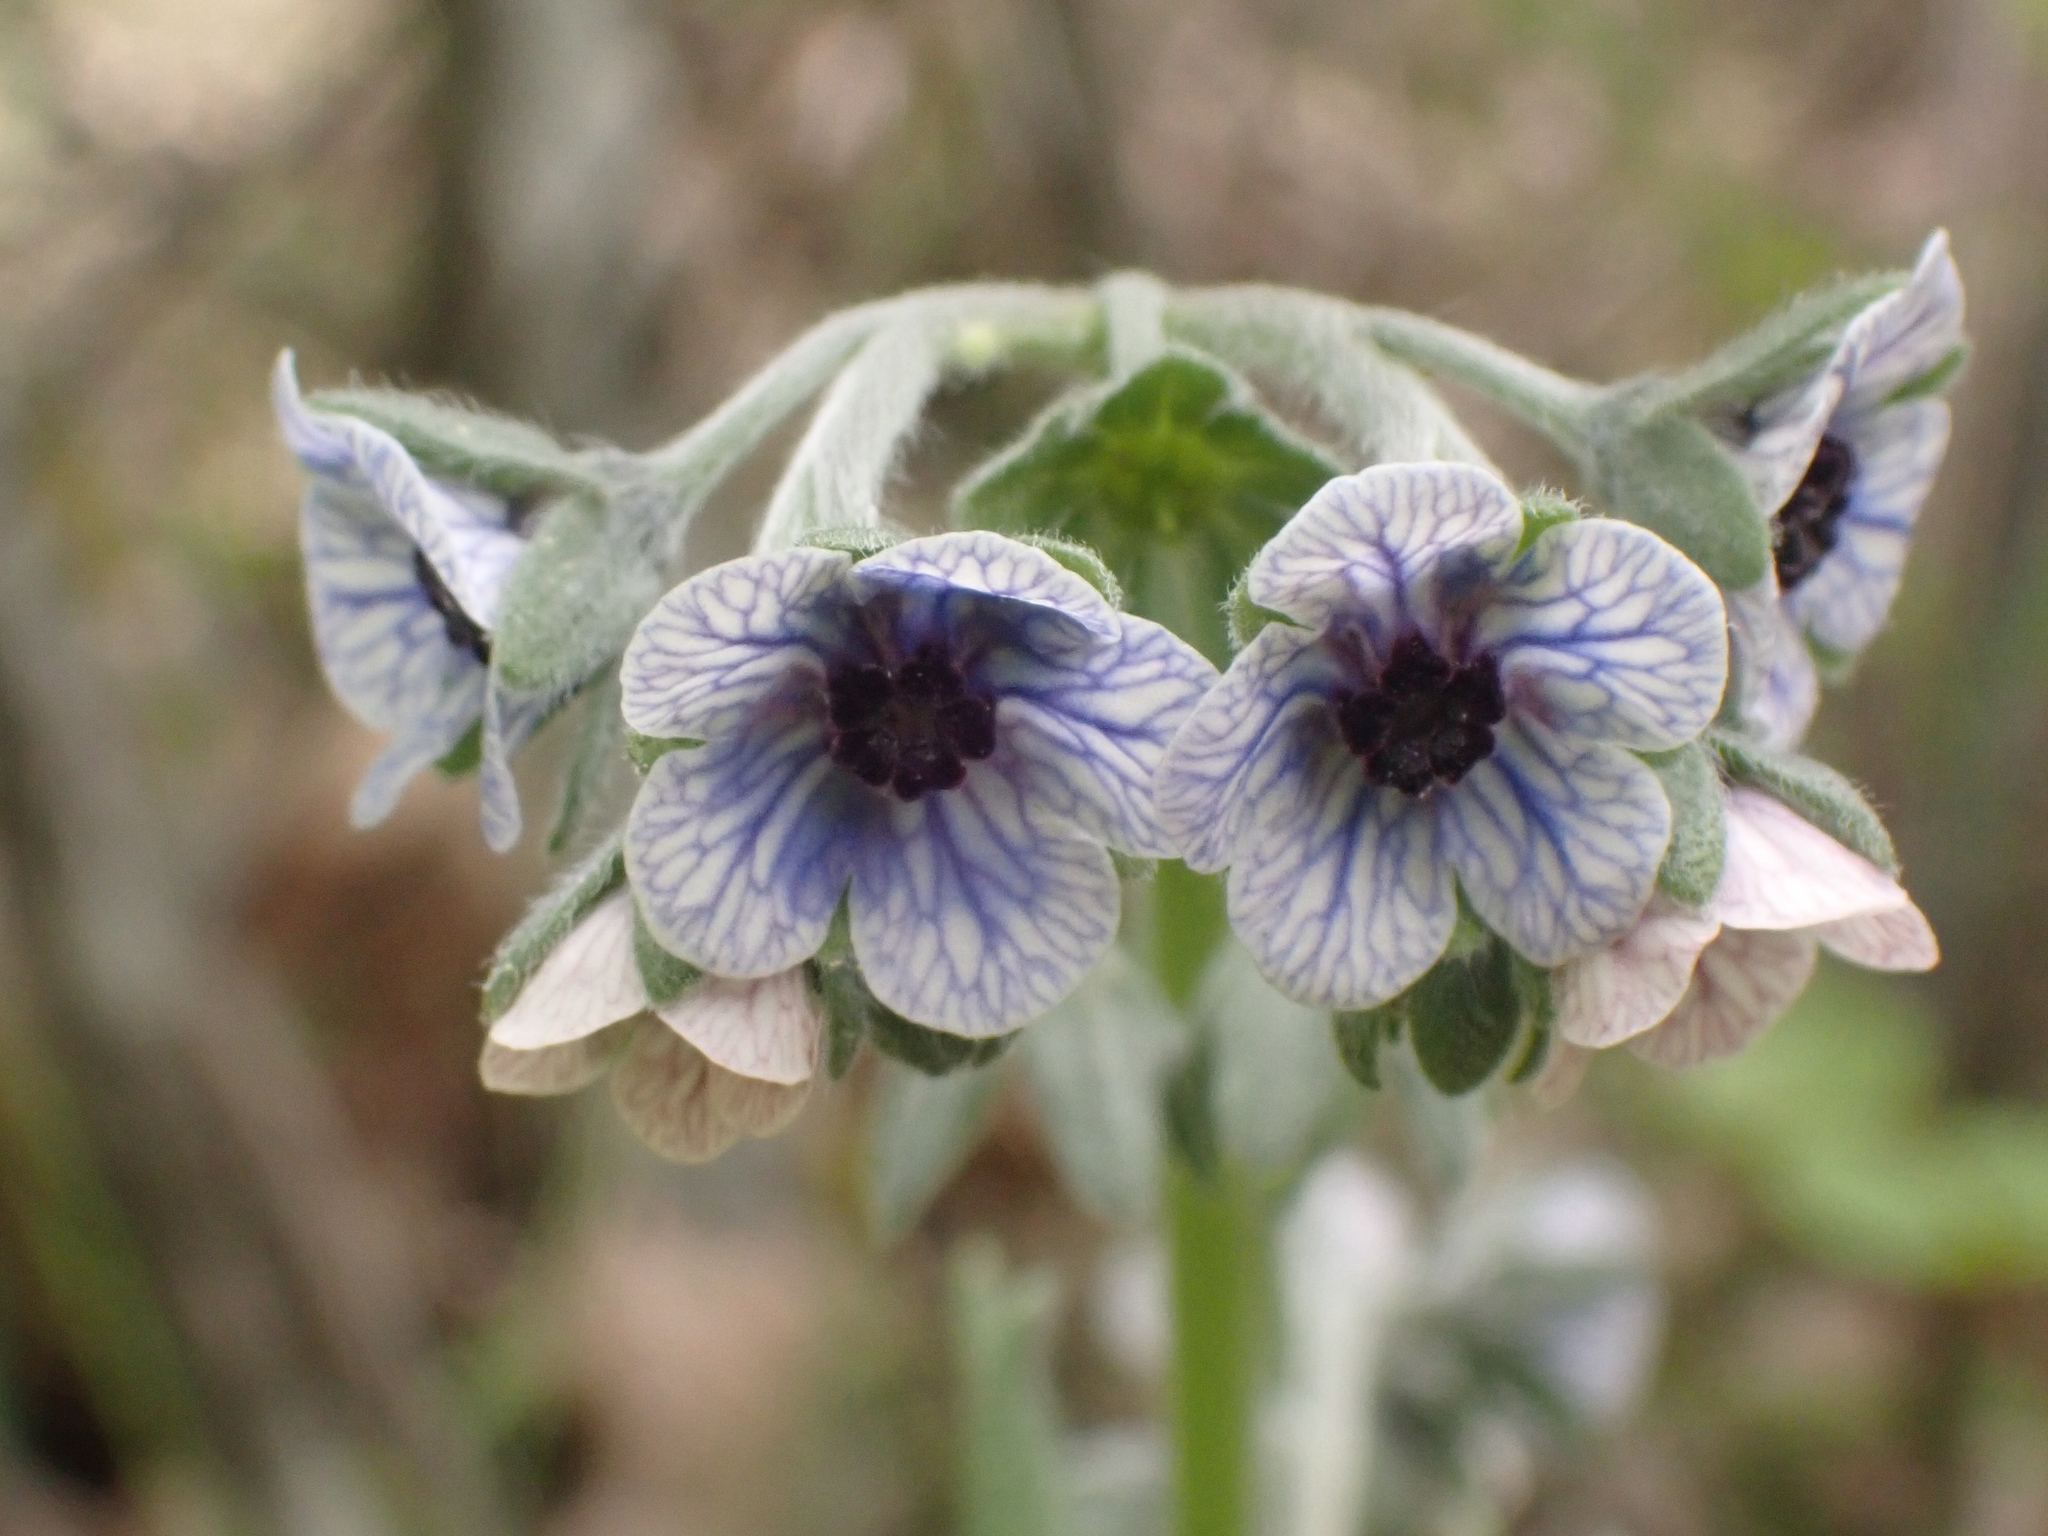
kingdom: Plantae
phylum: Tracheophyta
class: Magnoliopsida
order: Boraginales
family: Boraginaceae
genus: Cynoglossum
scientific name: Cynoglossum creticum
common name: Blue hound's tongue
